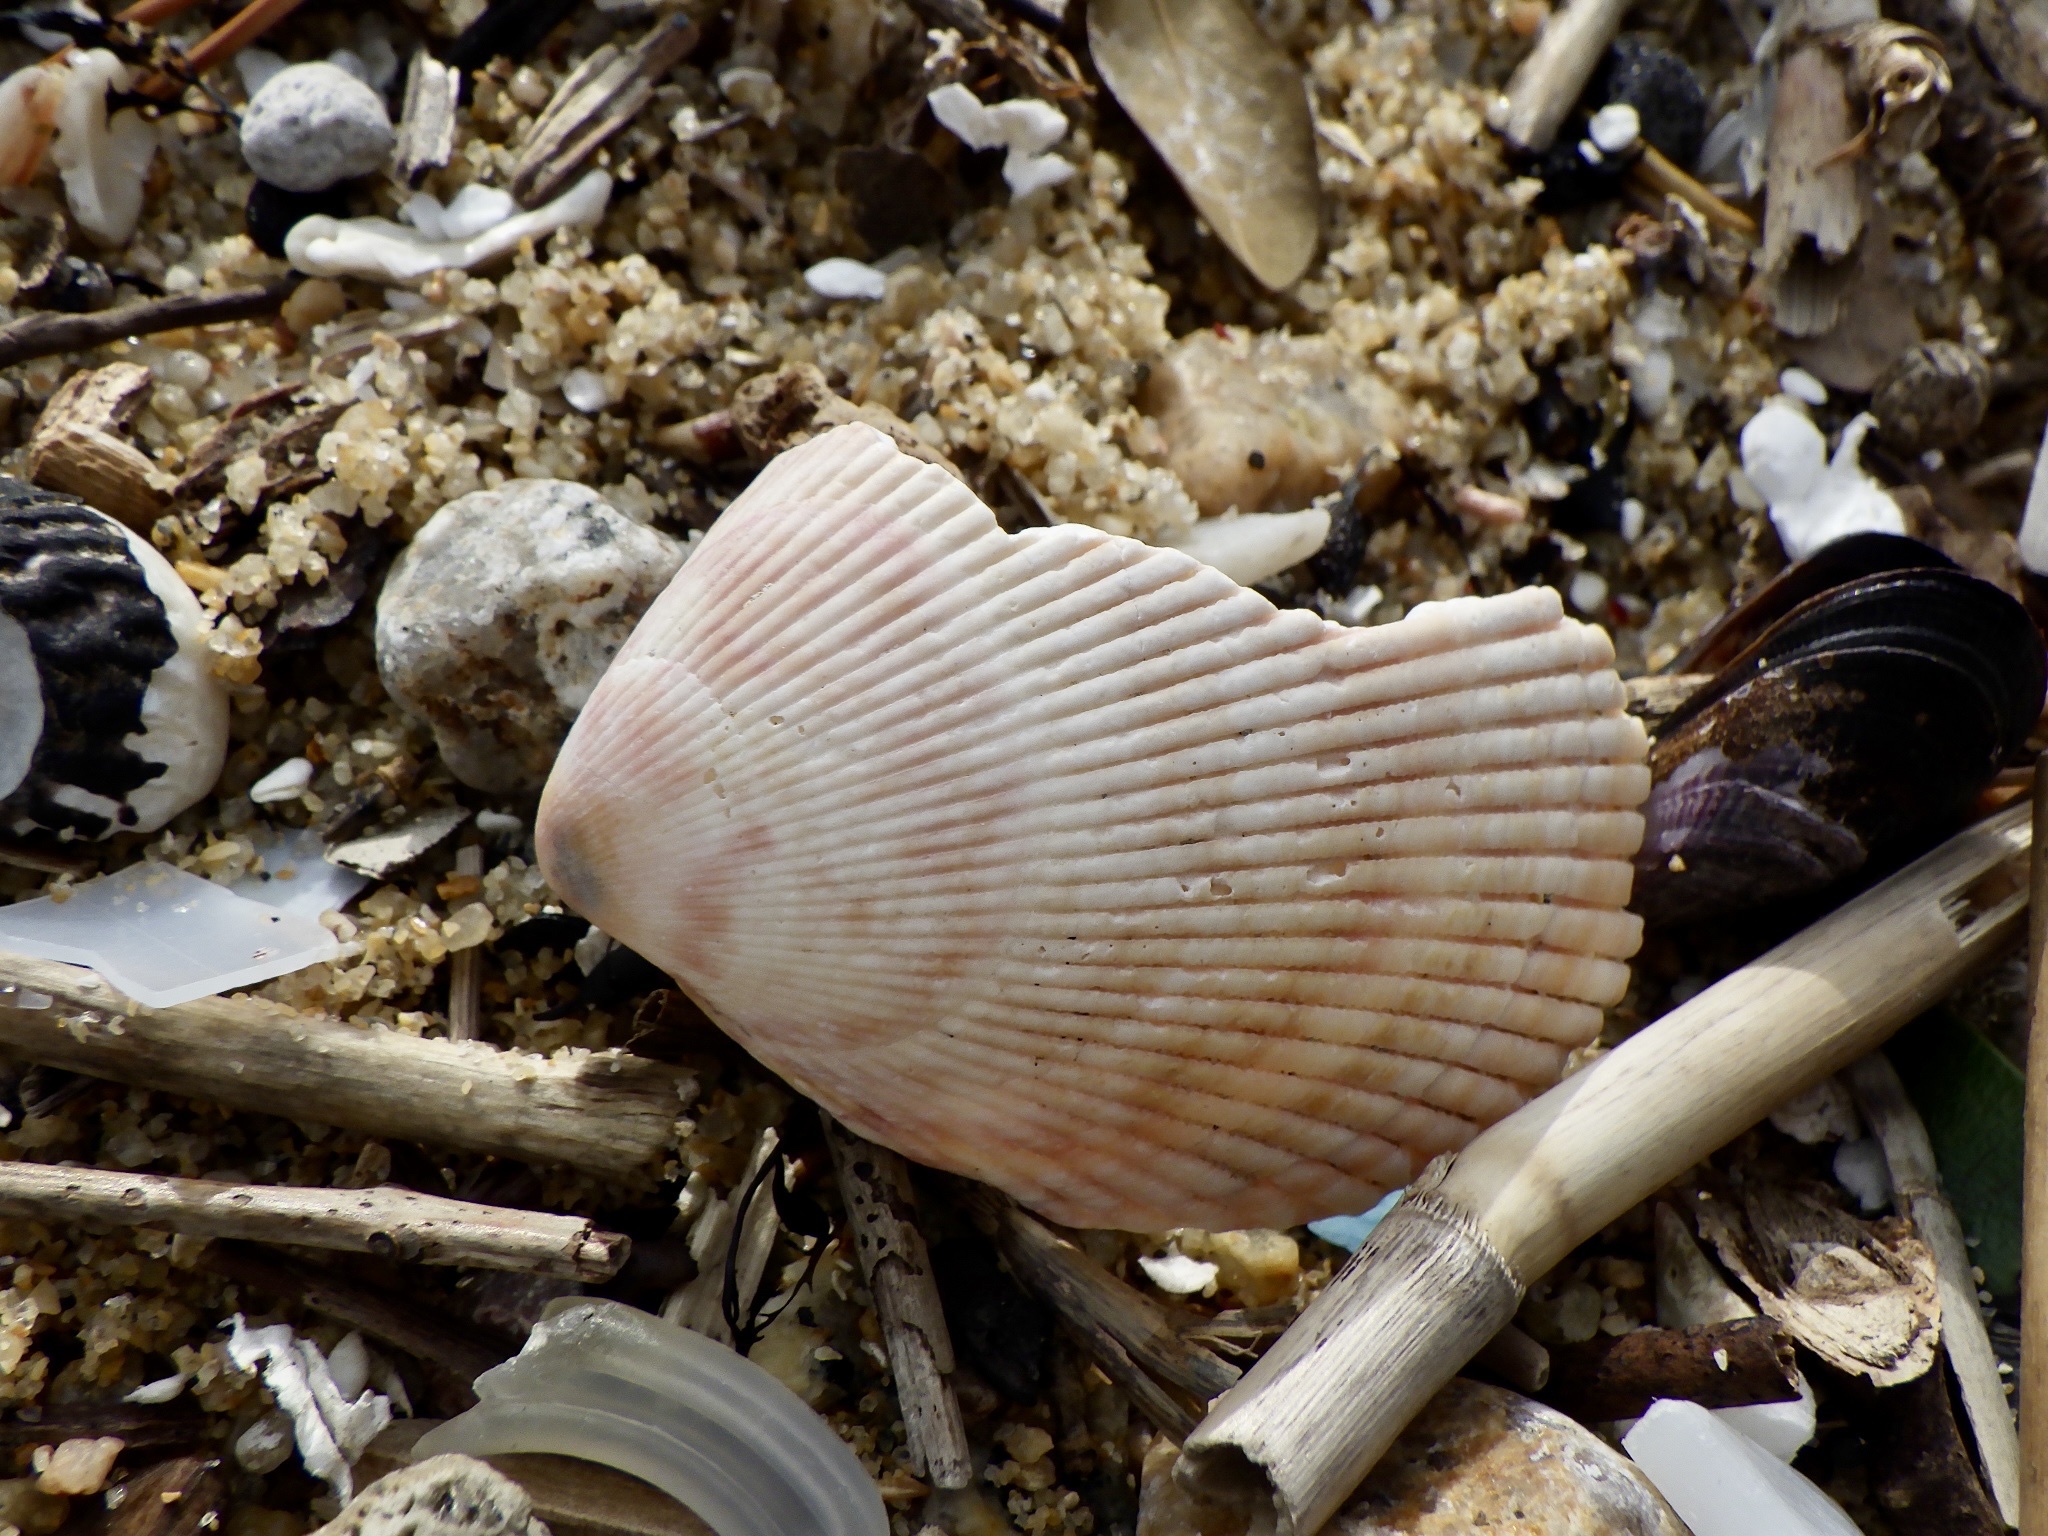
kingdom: Animalia
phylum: Mollusca
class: Bivalvia
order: Cardiida
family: Cardiidae
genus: Acrosterigma
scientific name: Acrosterigma maculosum
